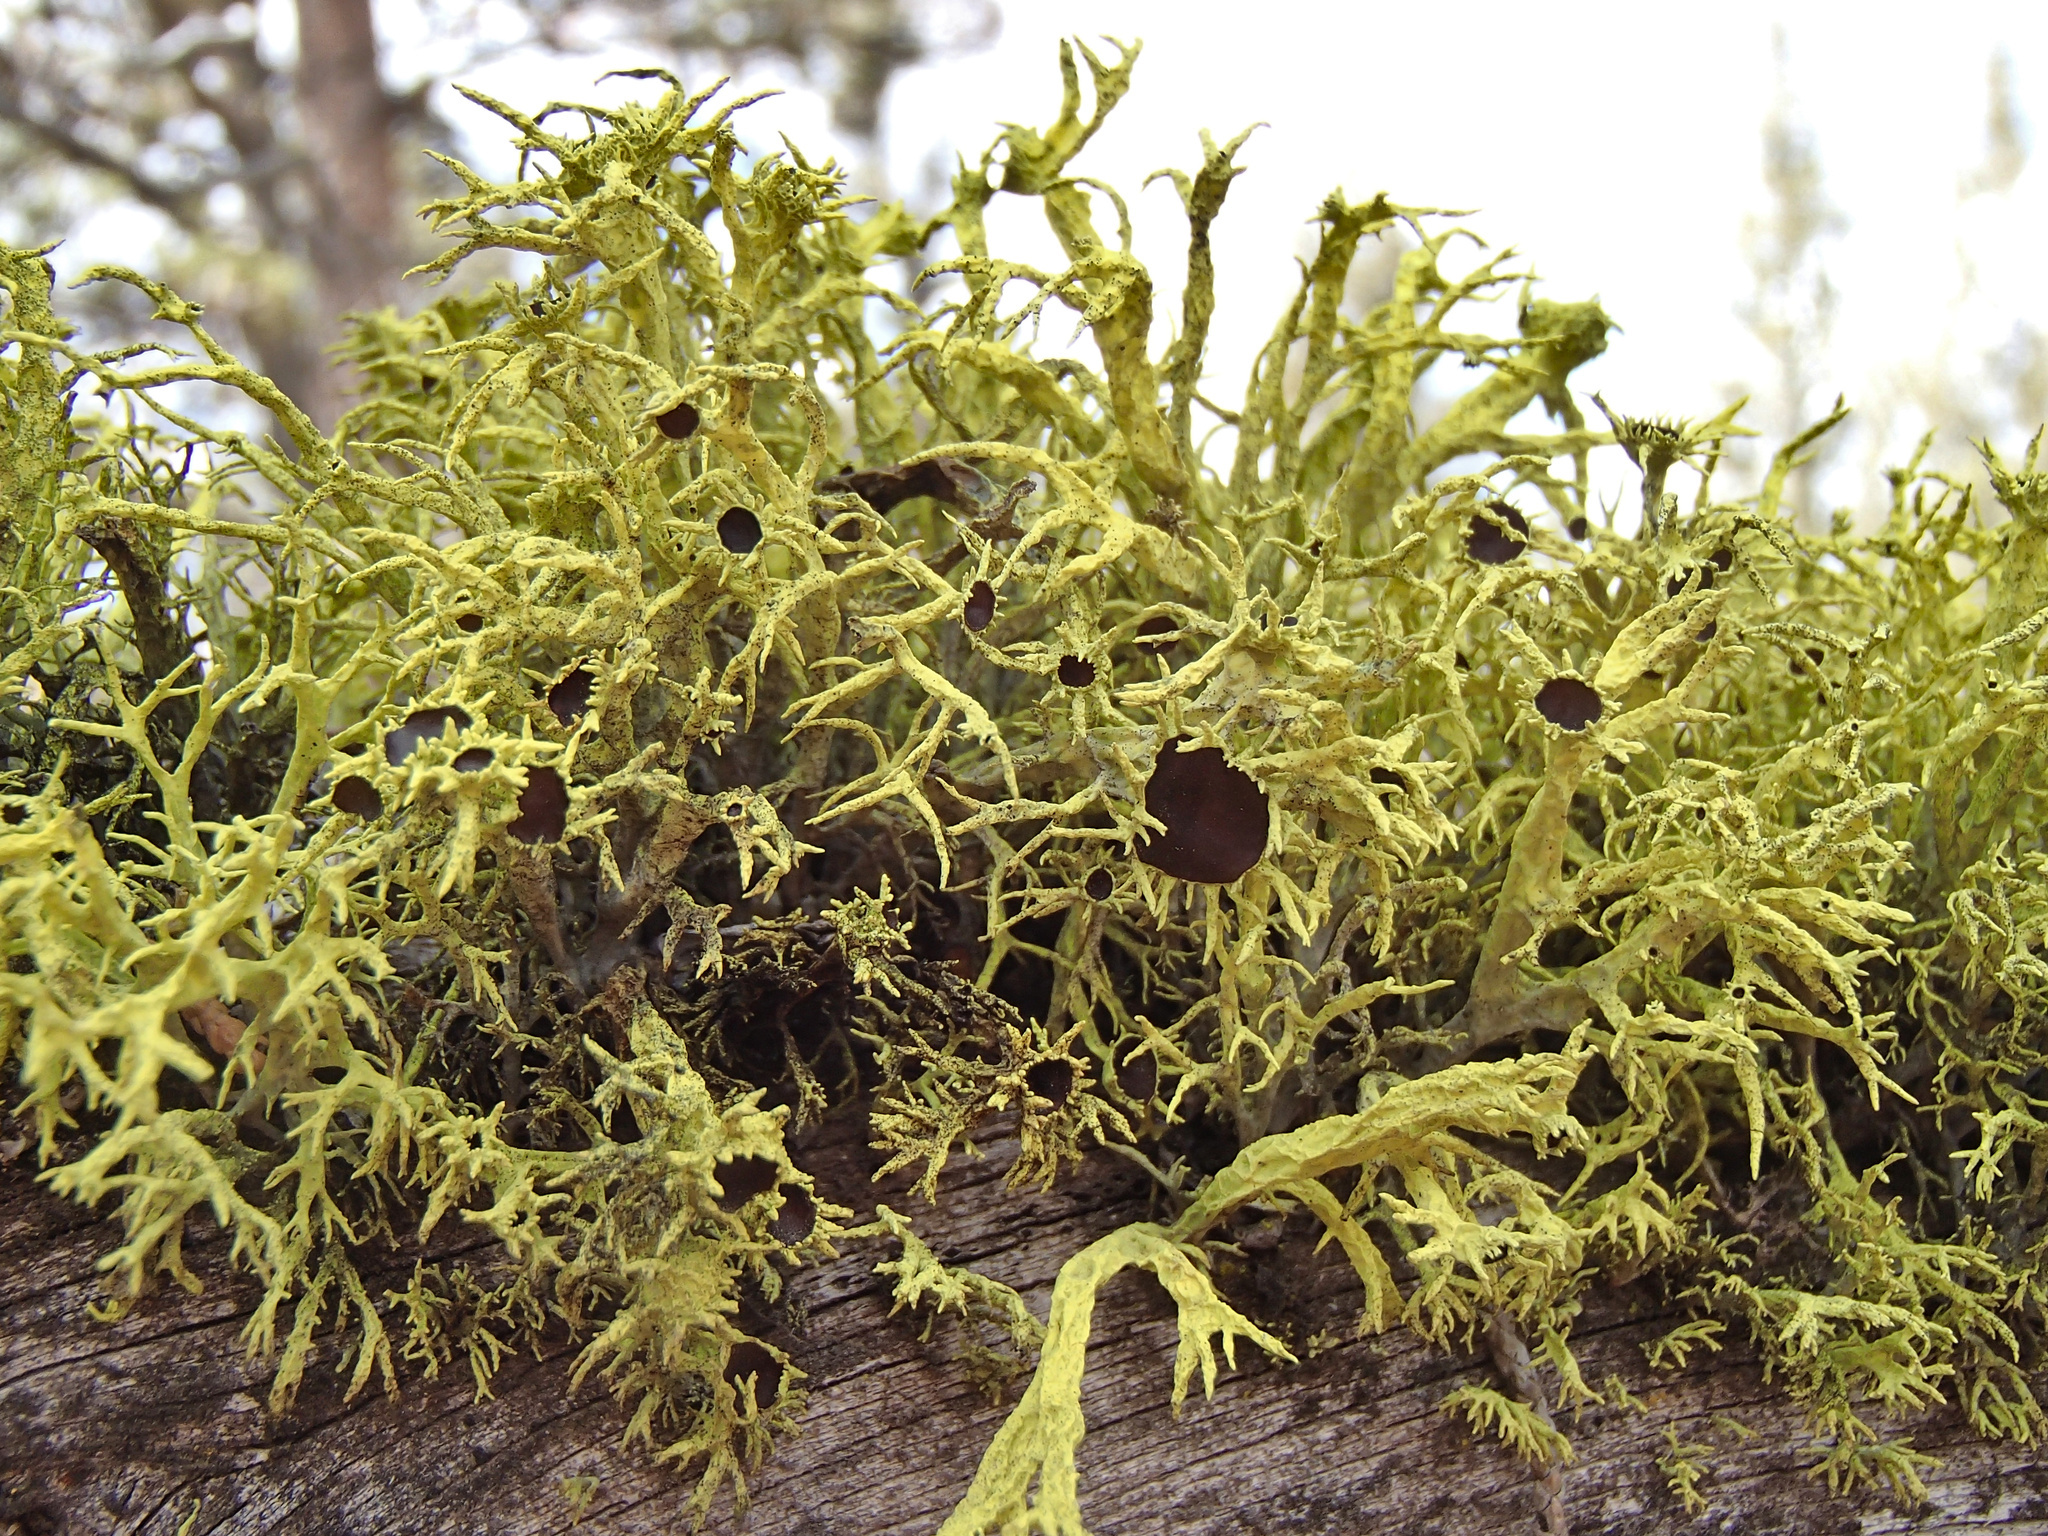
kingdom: Fungi
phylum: Ascomycota
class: Lecanoromycetes
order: Lecanorales
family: Parmeliaceae
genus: Letharia
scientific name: Letharia columbiana
